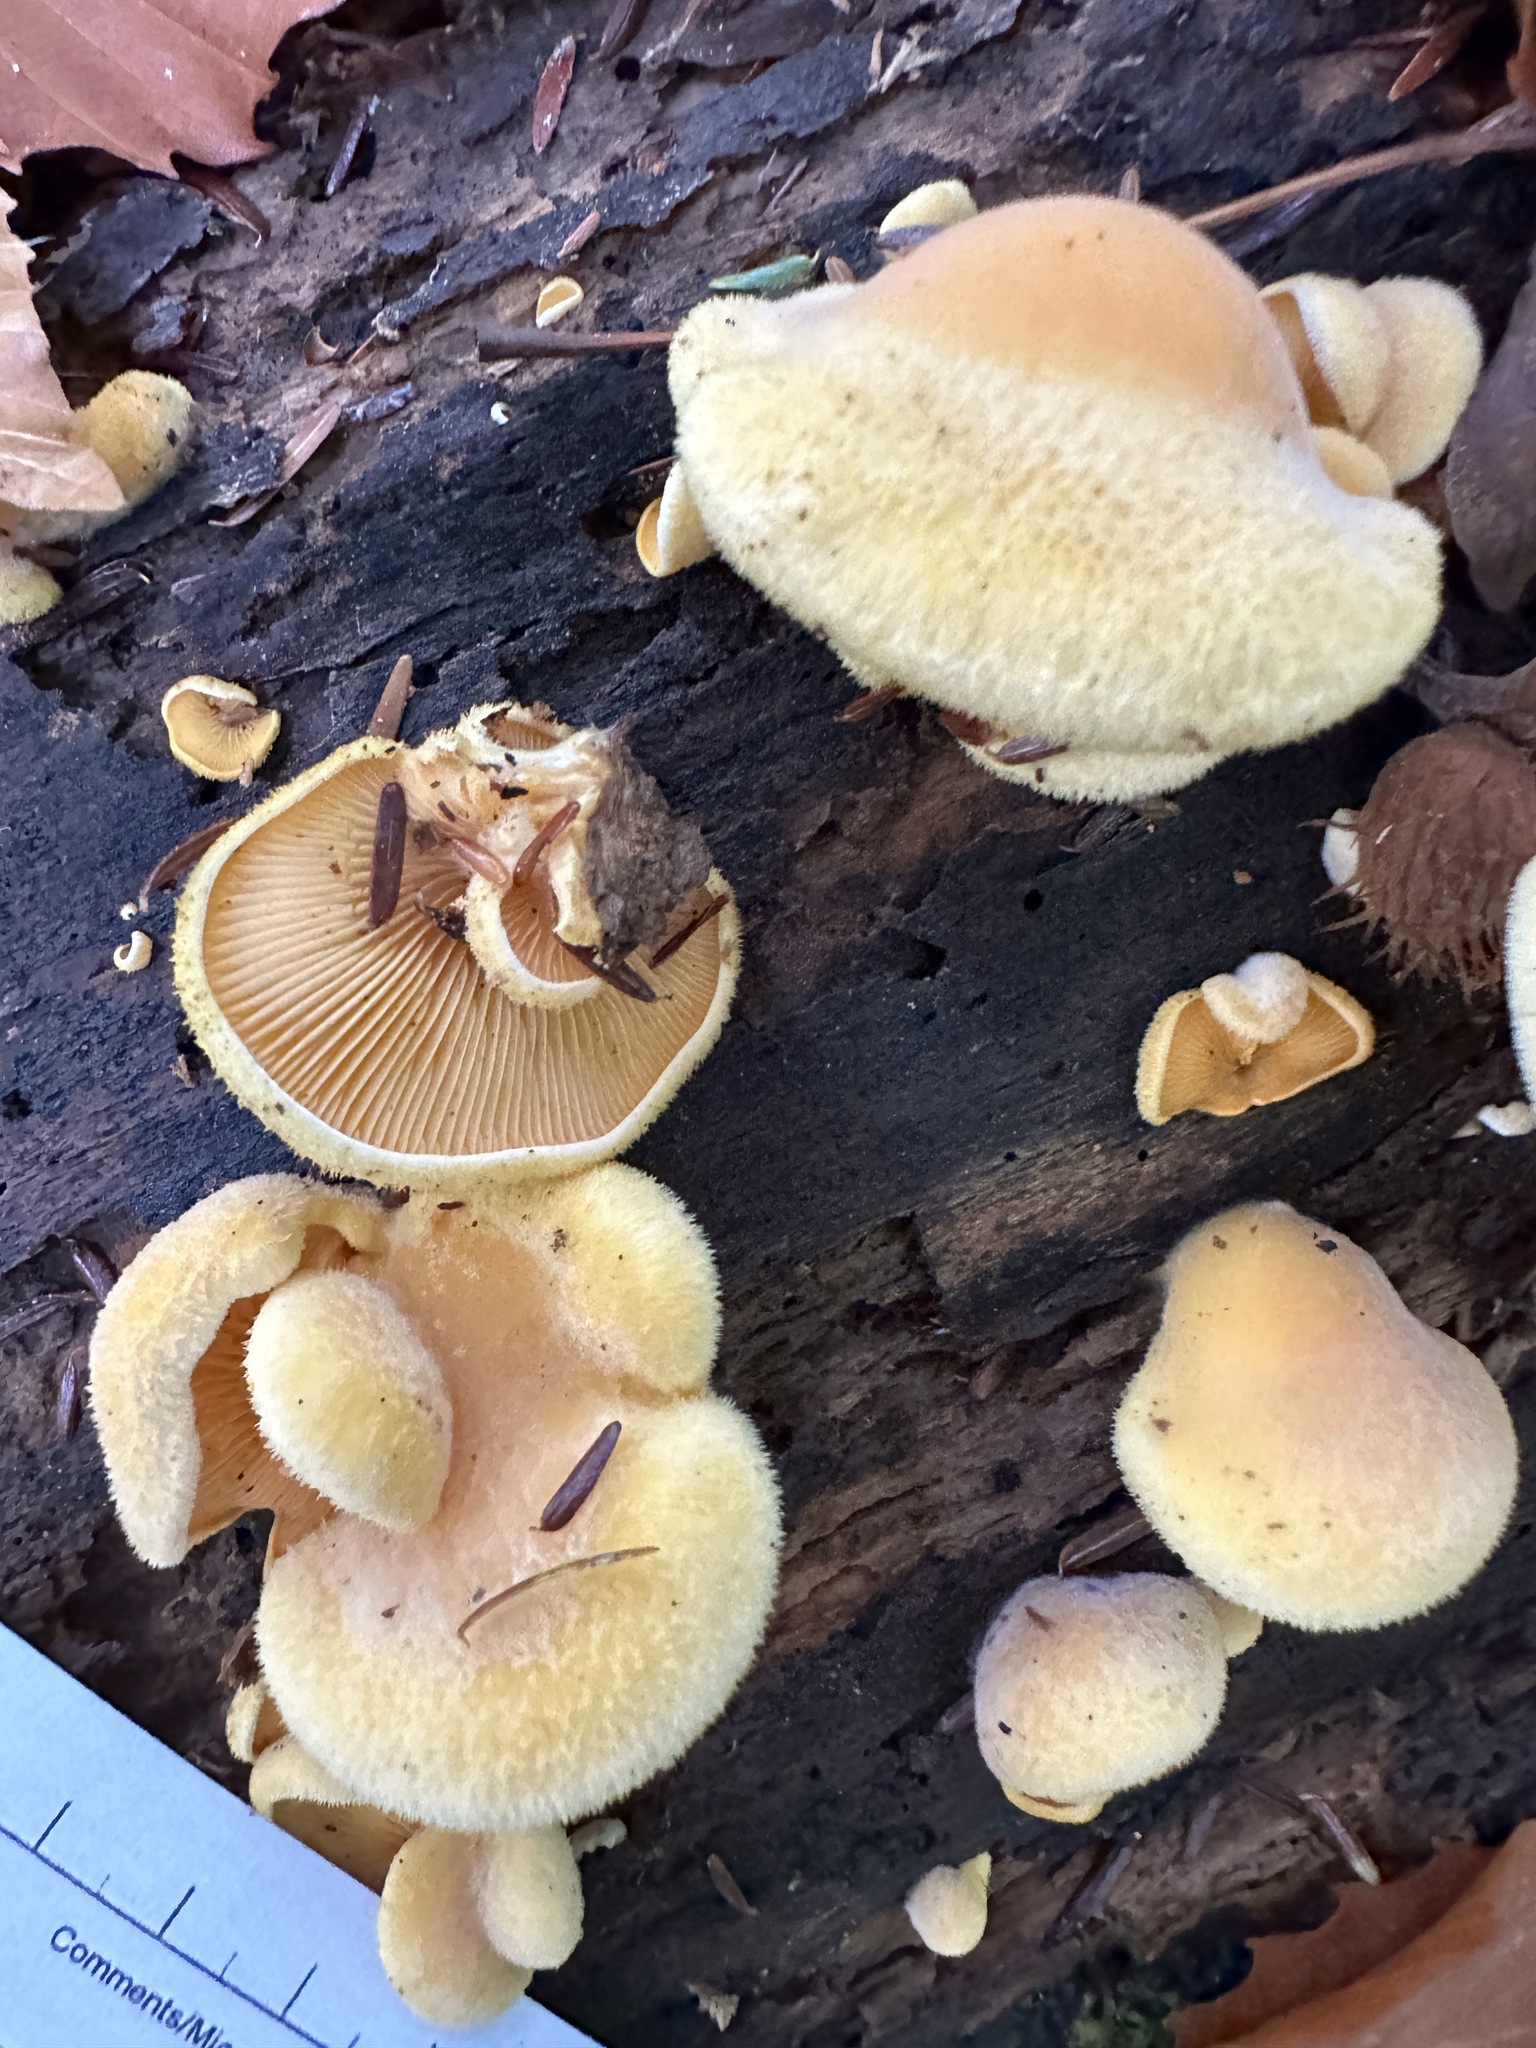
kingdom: Fungi
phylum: Basidiomycota
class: Agaricomycetes
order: Agaricales
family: Phyllotopsidaceae
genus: Phyllotopsis
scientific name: Phyllotopsis nidulans
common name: Orange mock oyster
